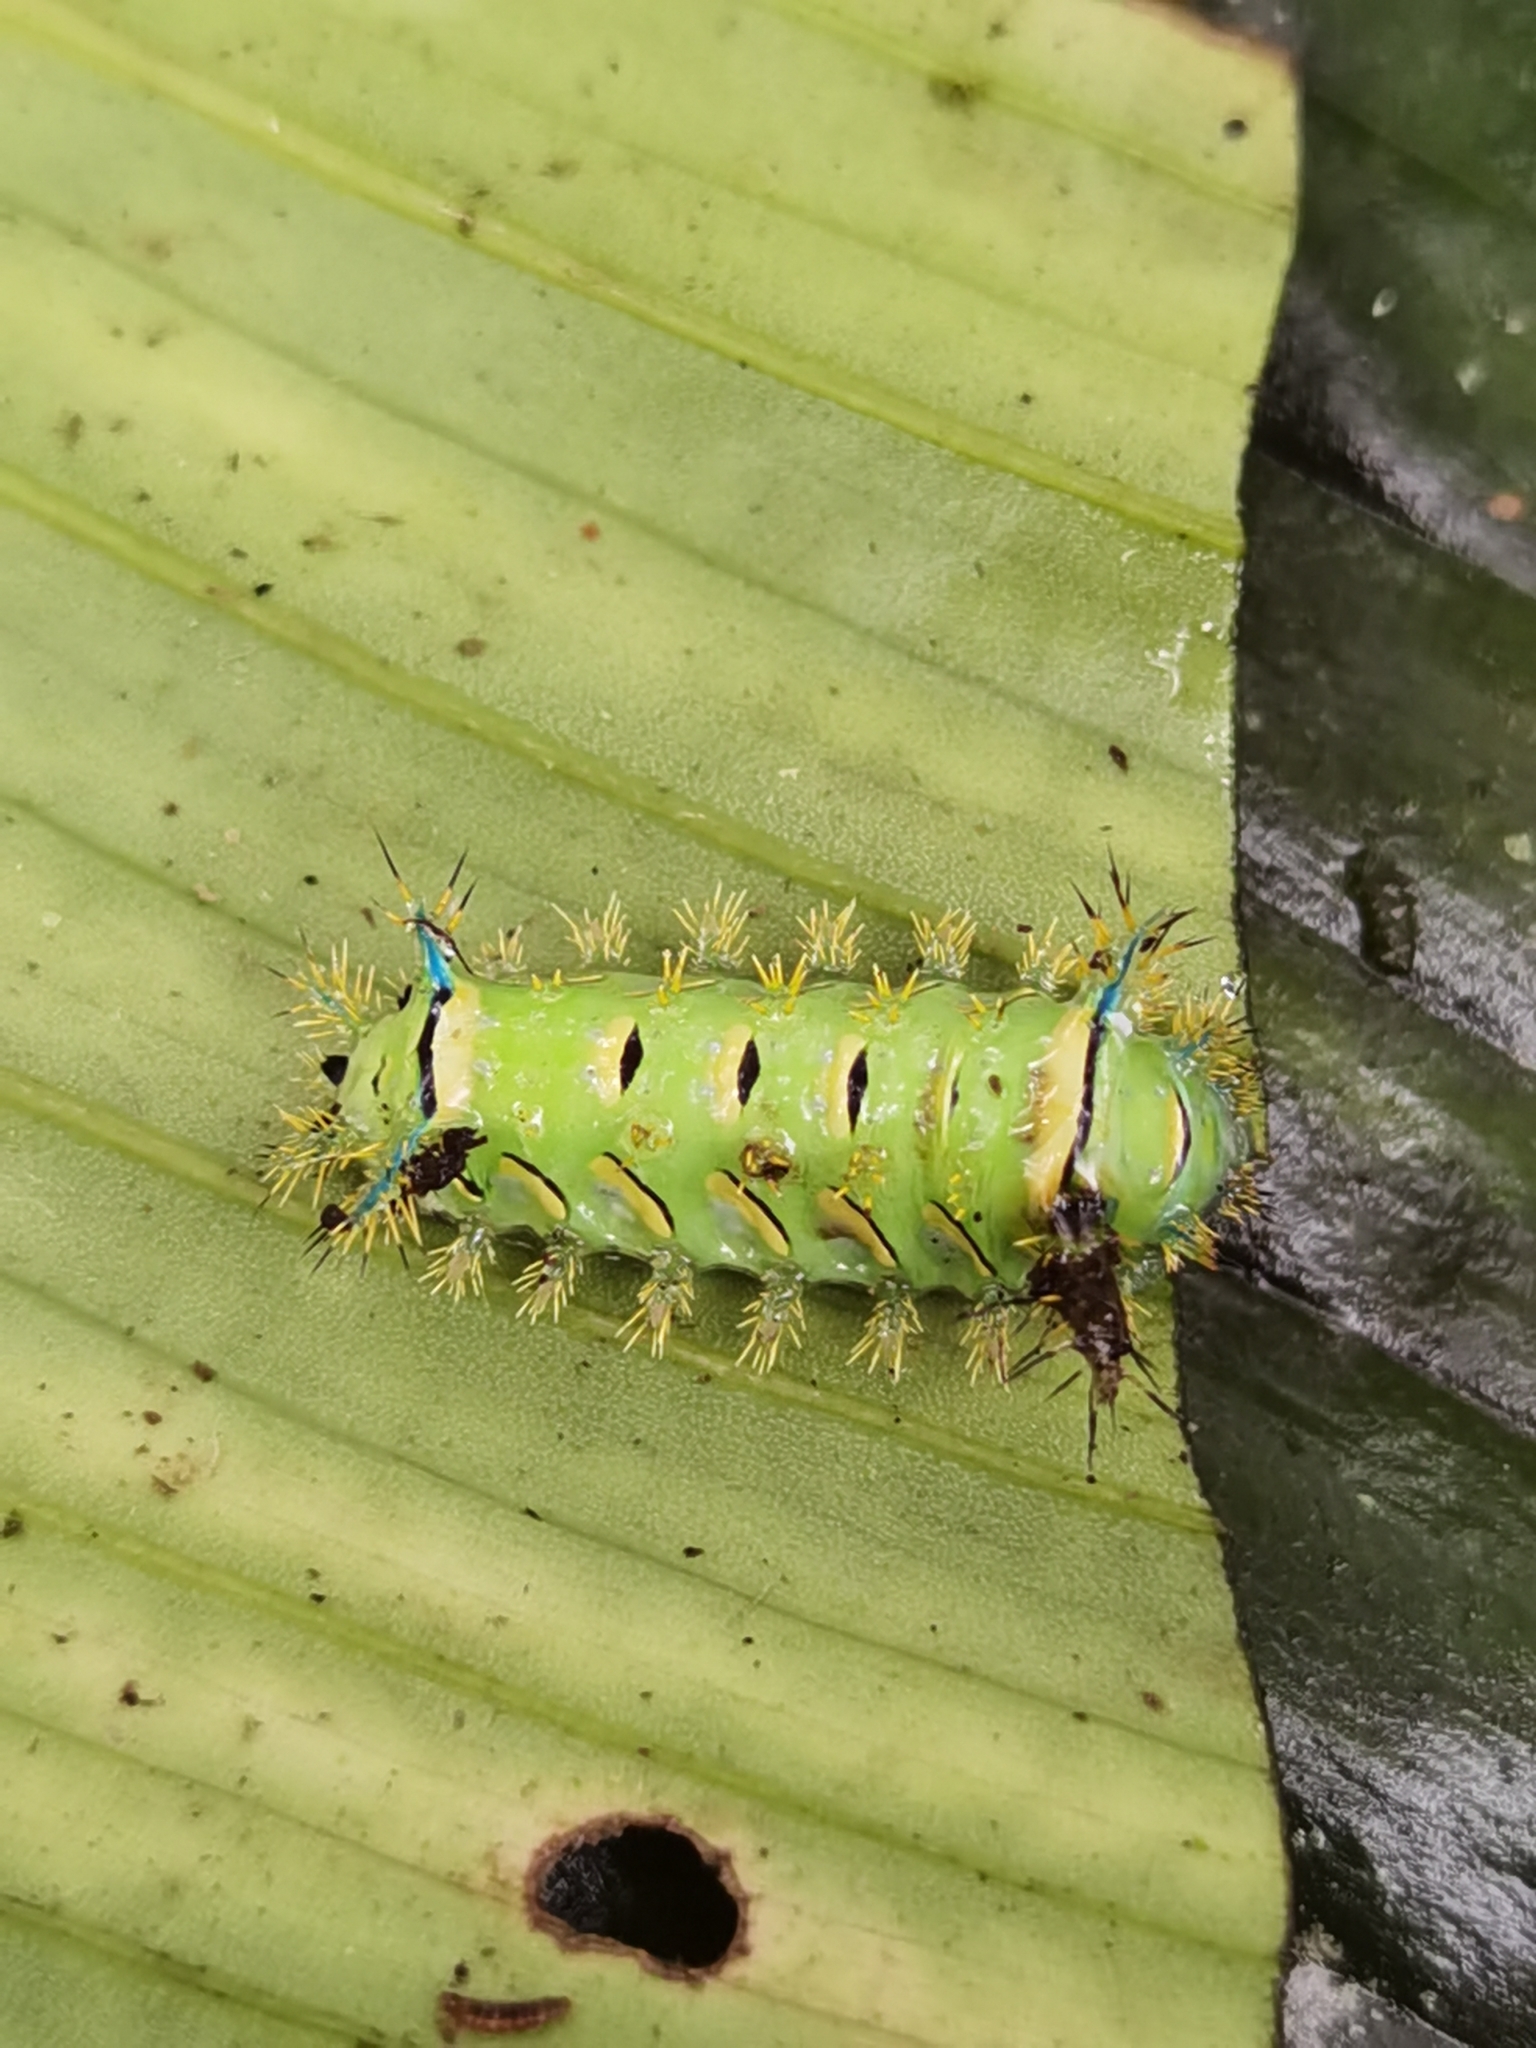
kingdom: Animalia
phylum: Arthropoda
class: Insecta
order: Lepidoptera
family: Limacodidae
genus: Parasa
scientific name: Parasa macrodonta
